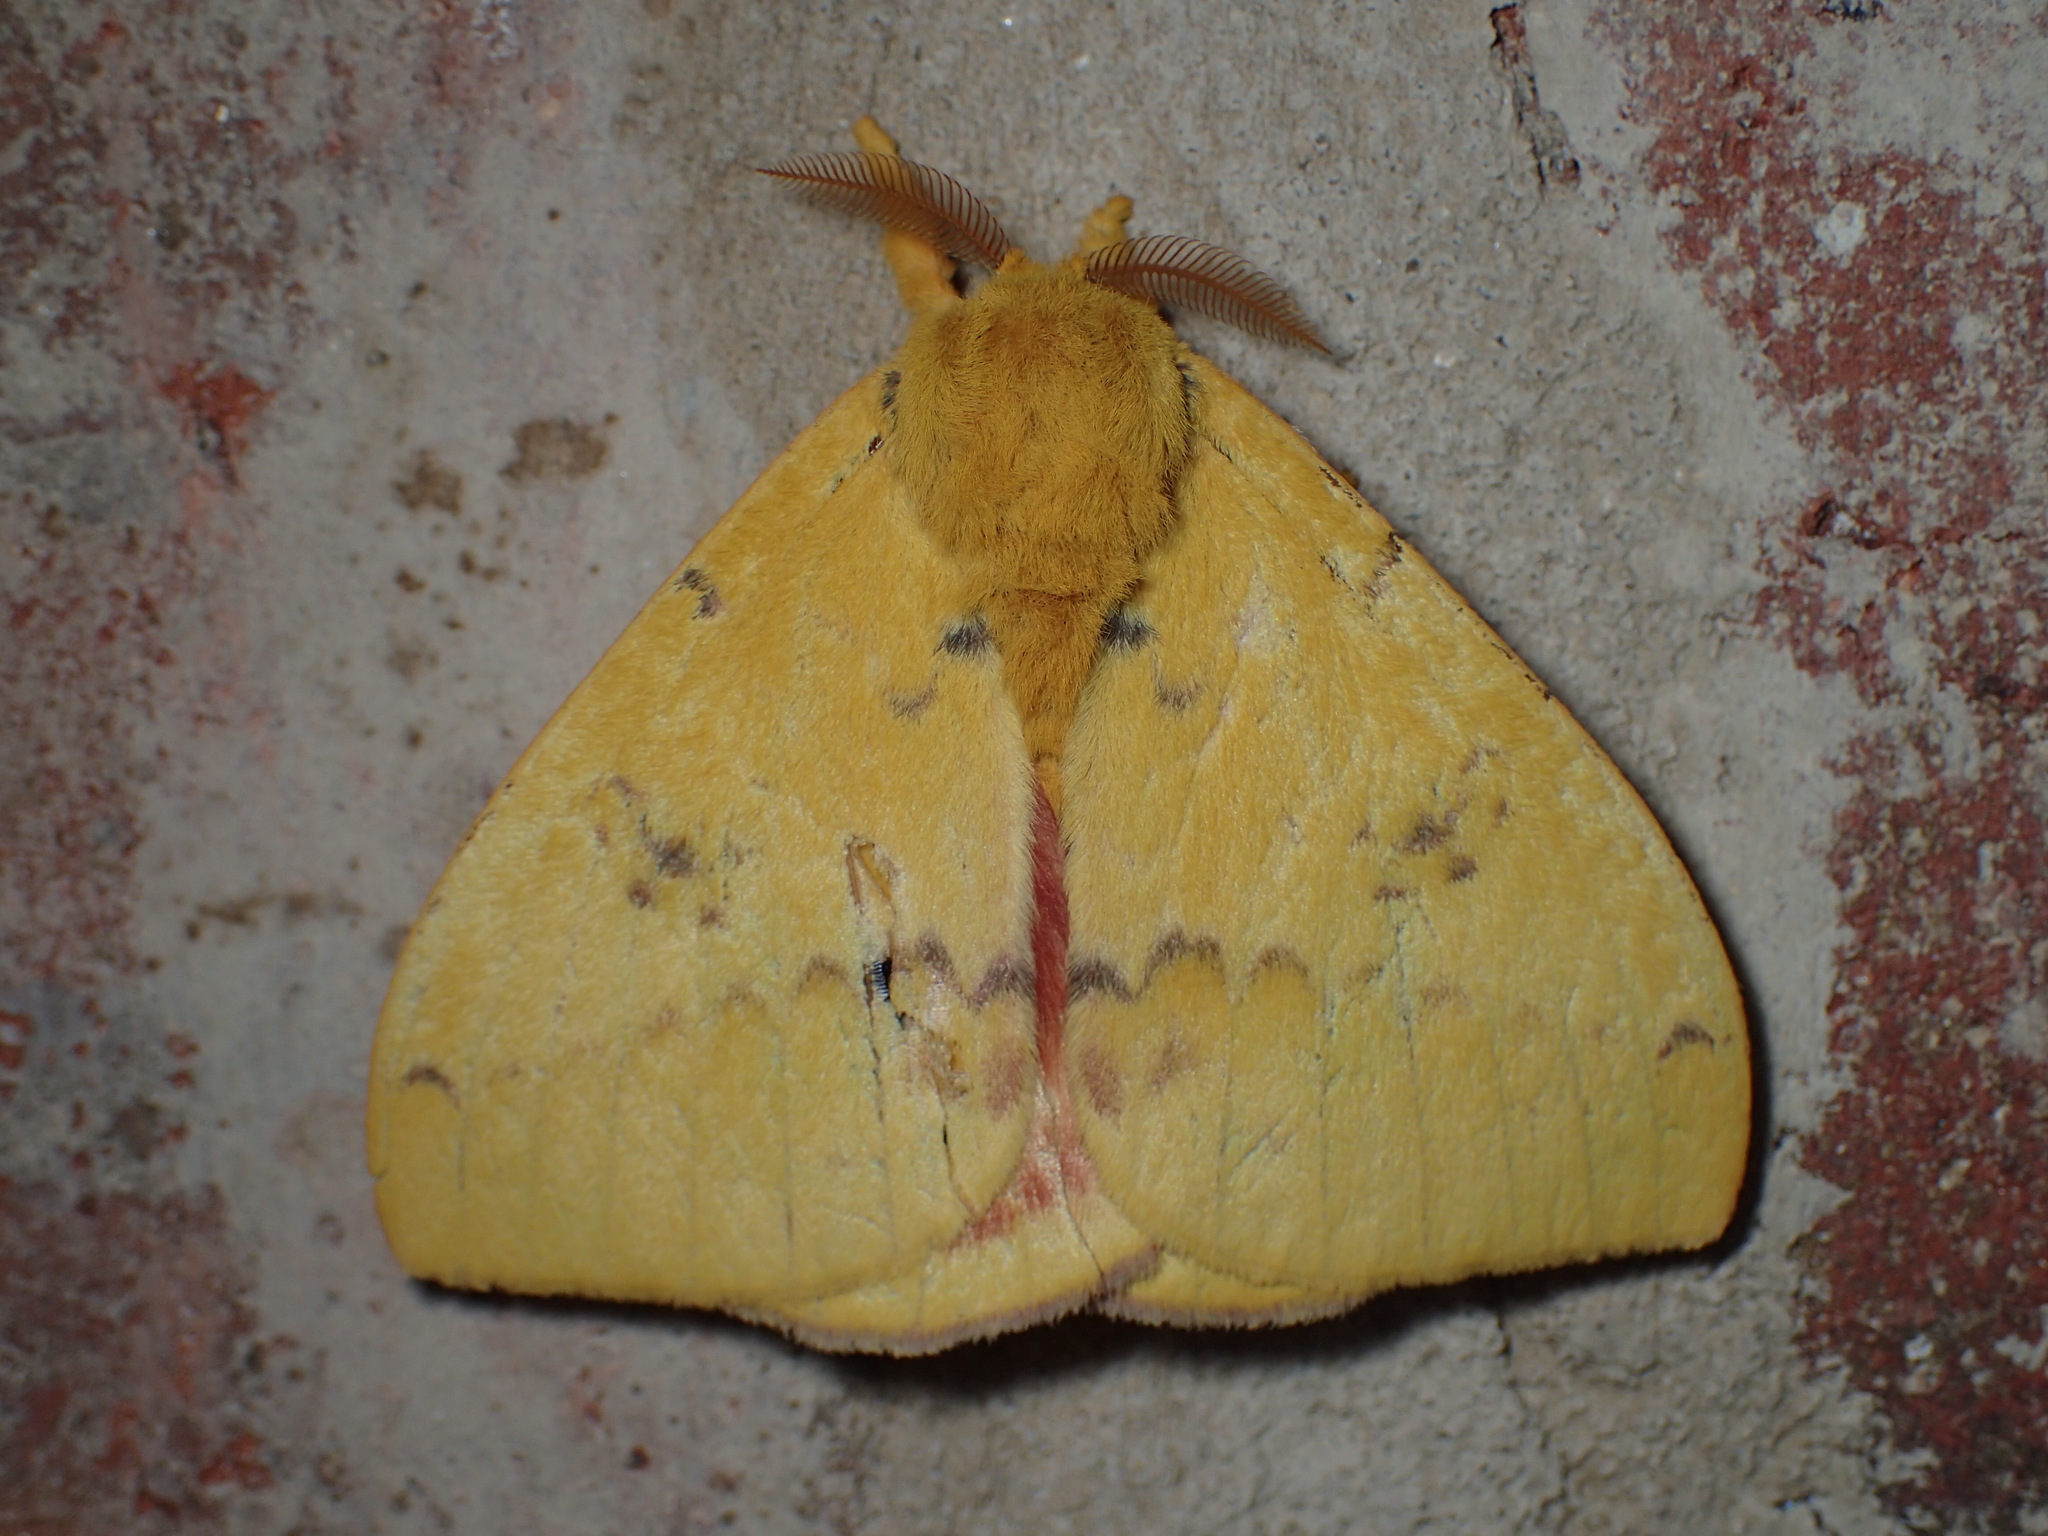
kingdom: Animalia
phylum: Arthropoda
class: Insecta
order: Lepidoptera
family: Saturniidae
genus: Automeris
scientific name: Automeris io
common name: Io moth
